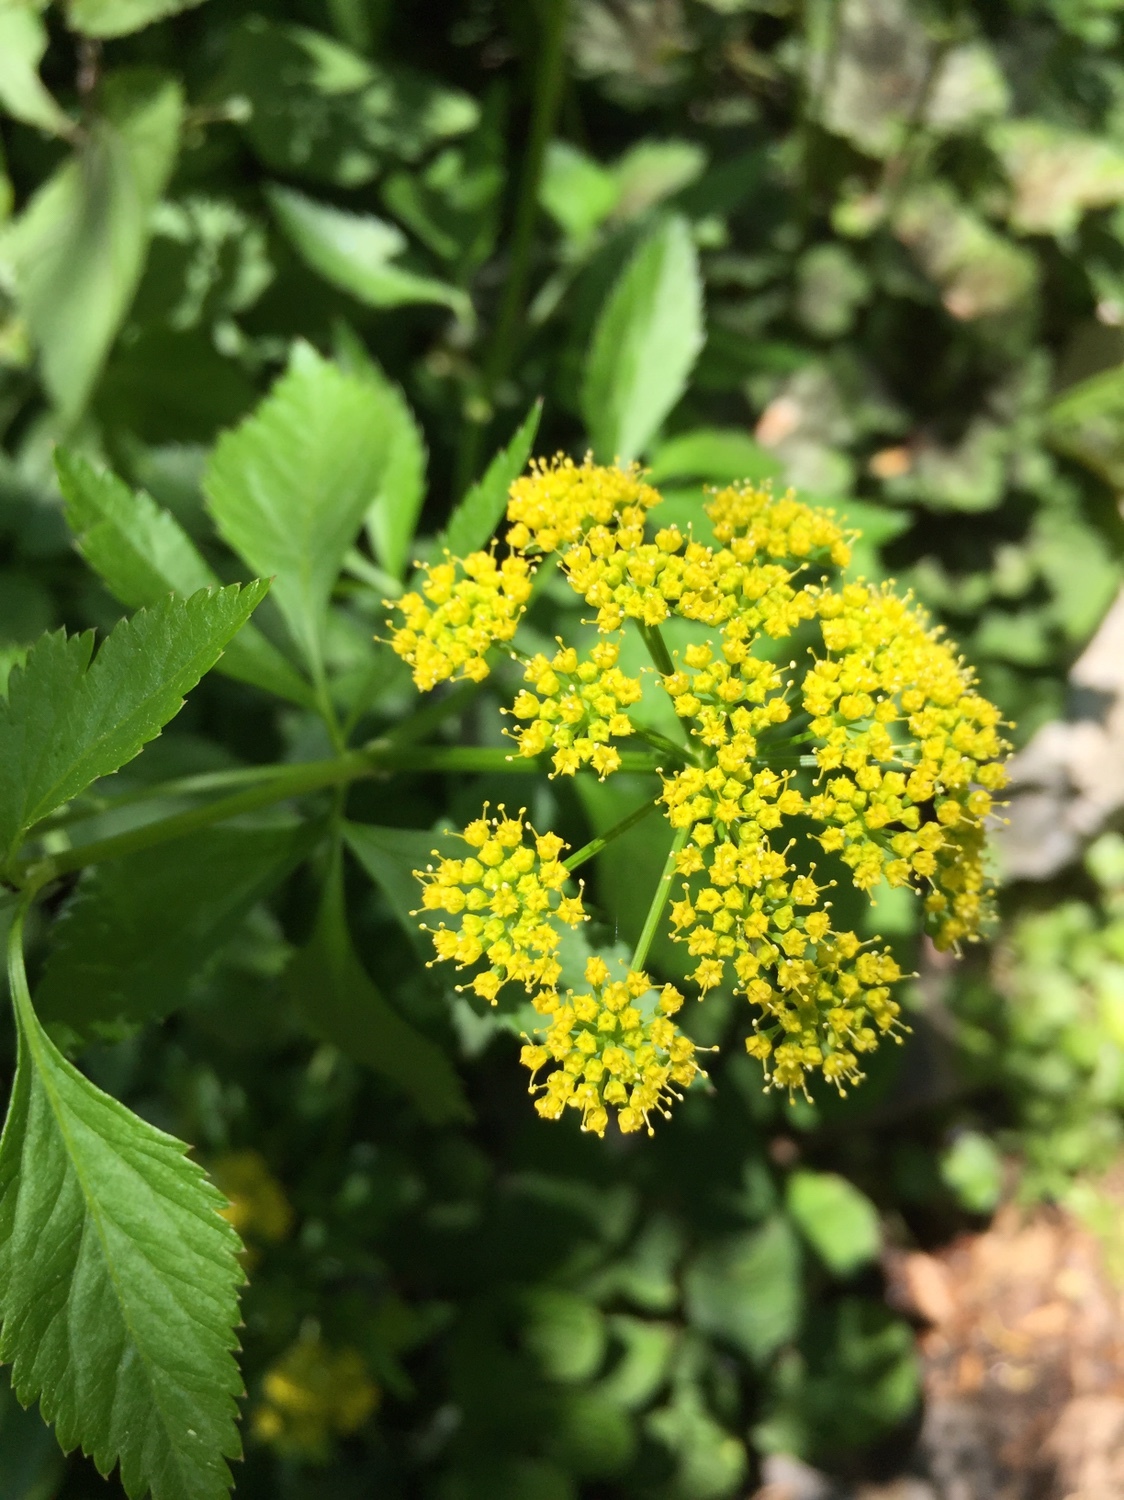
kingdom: Plantae
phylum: Tracheophyta
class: Magnoliopsida
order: Apiales
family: Apiaceae
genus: Zizia
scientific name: Zizia aurea
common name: Golden alexanders
